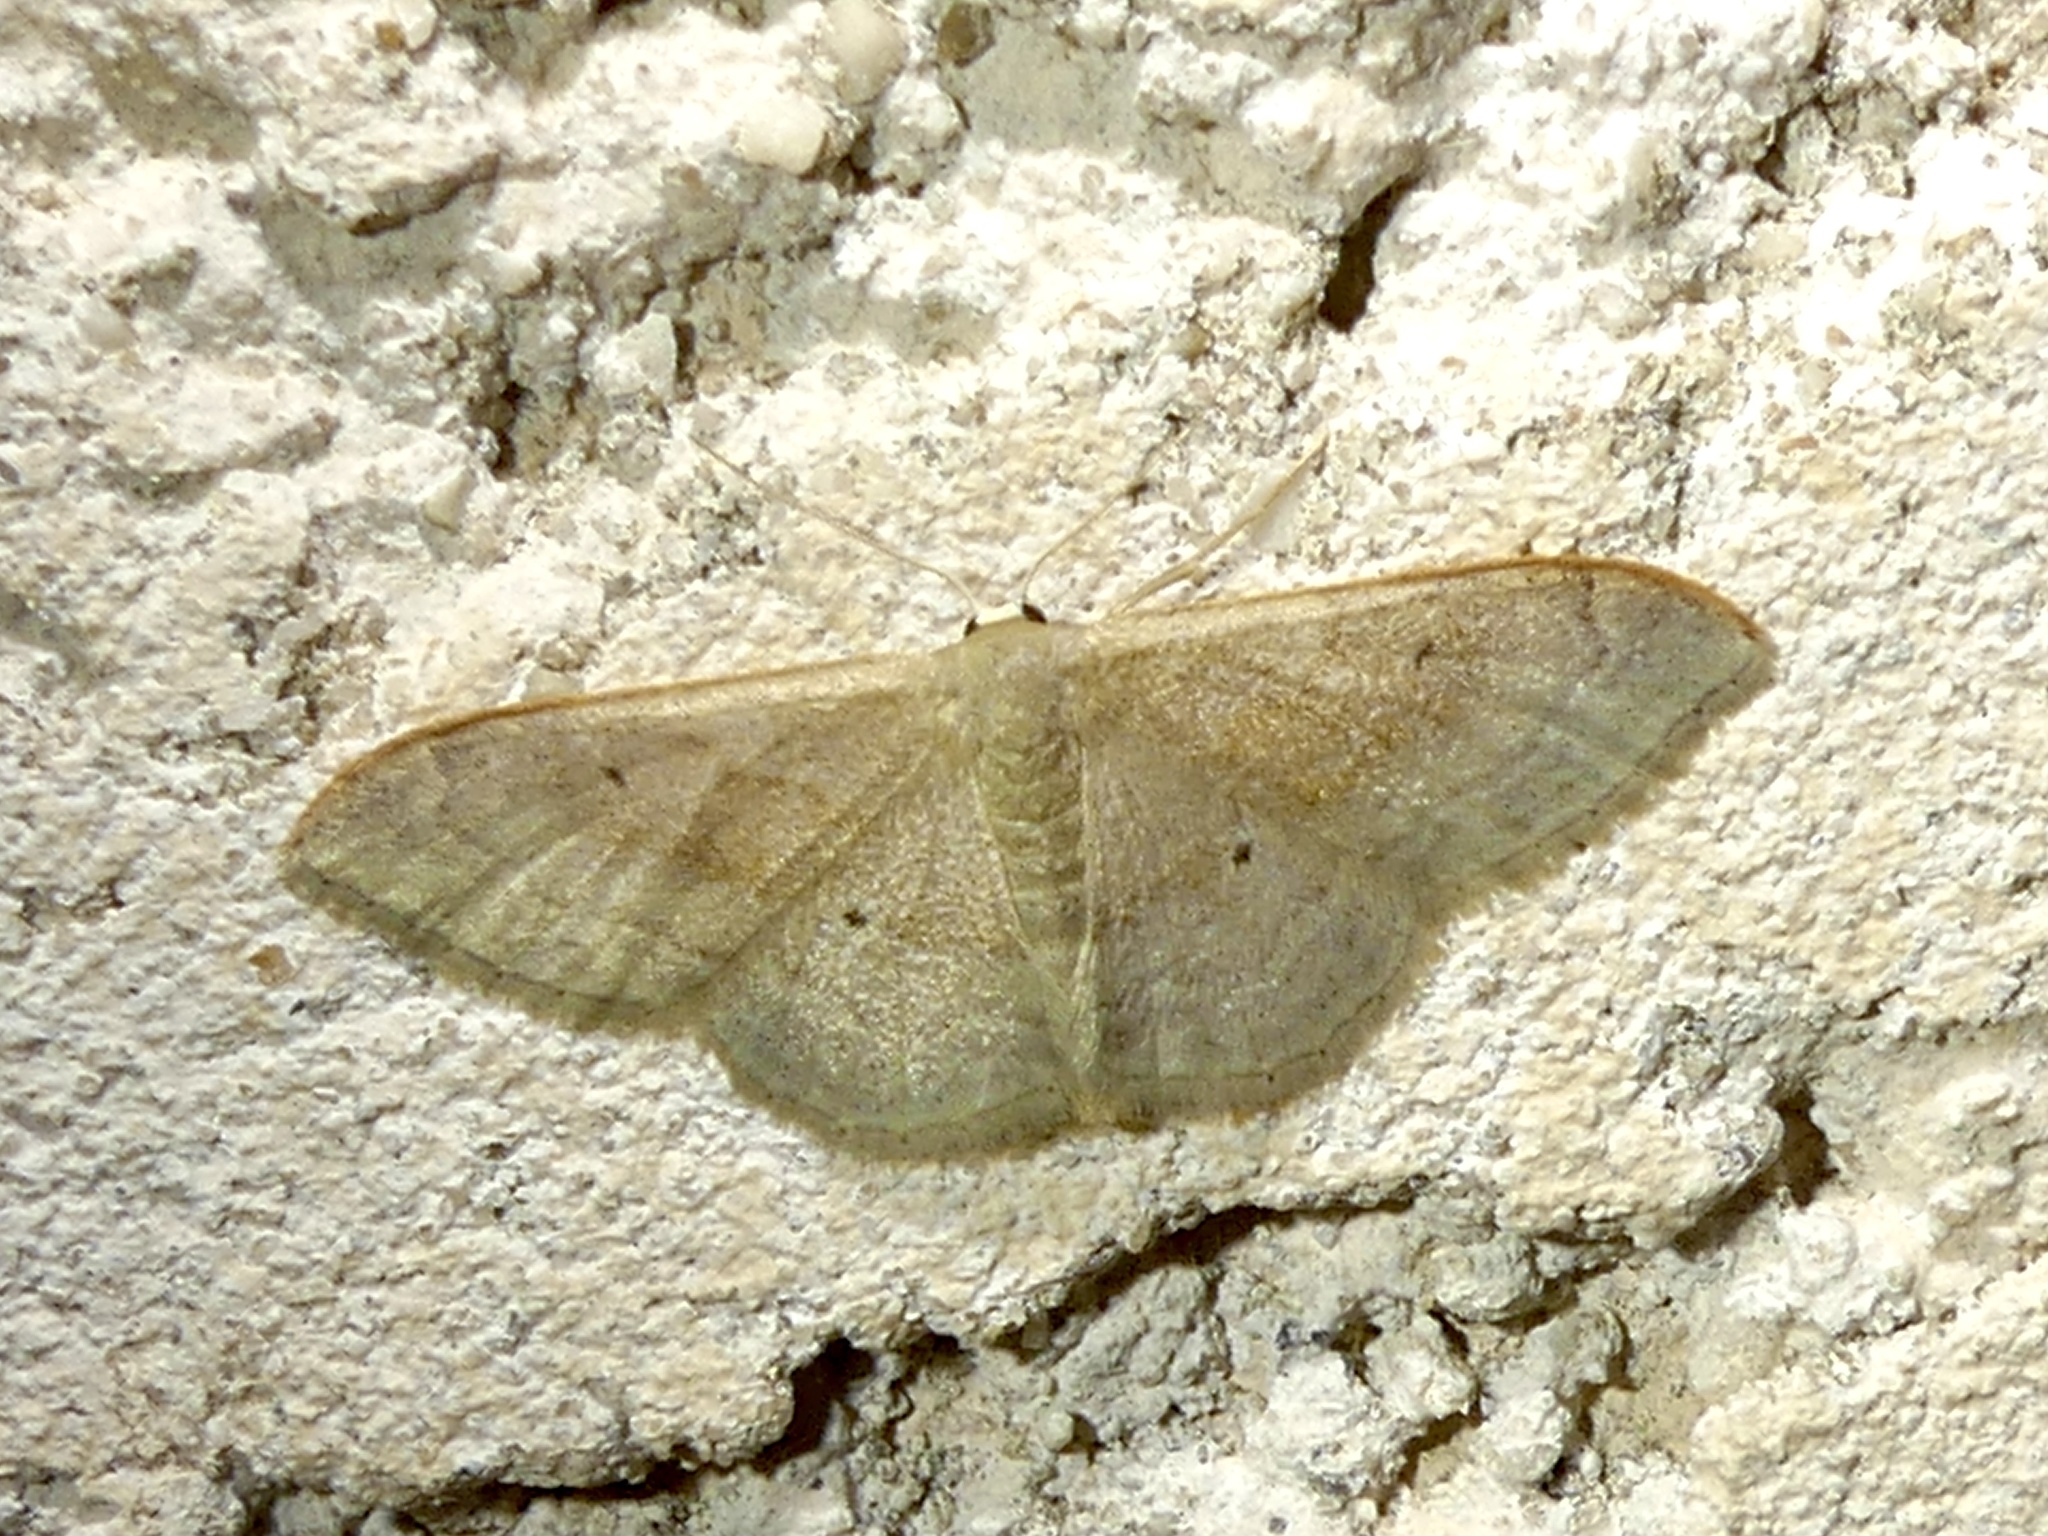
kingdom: Animalia
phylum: Arthropoda
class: Insecta
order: Lepidoptera
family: Geometridae
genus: Idaea
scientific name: Idaea degeneraria
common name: Portland ribbon wave
